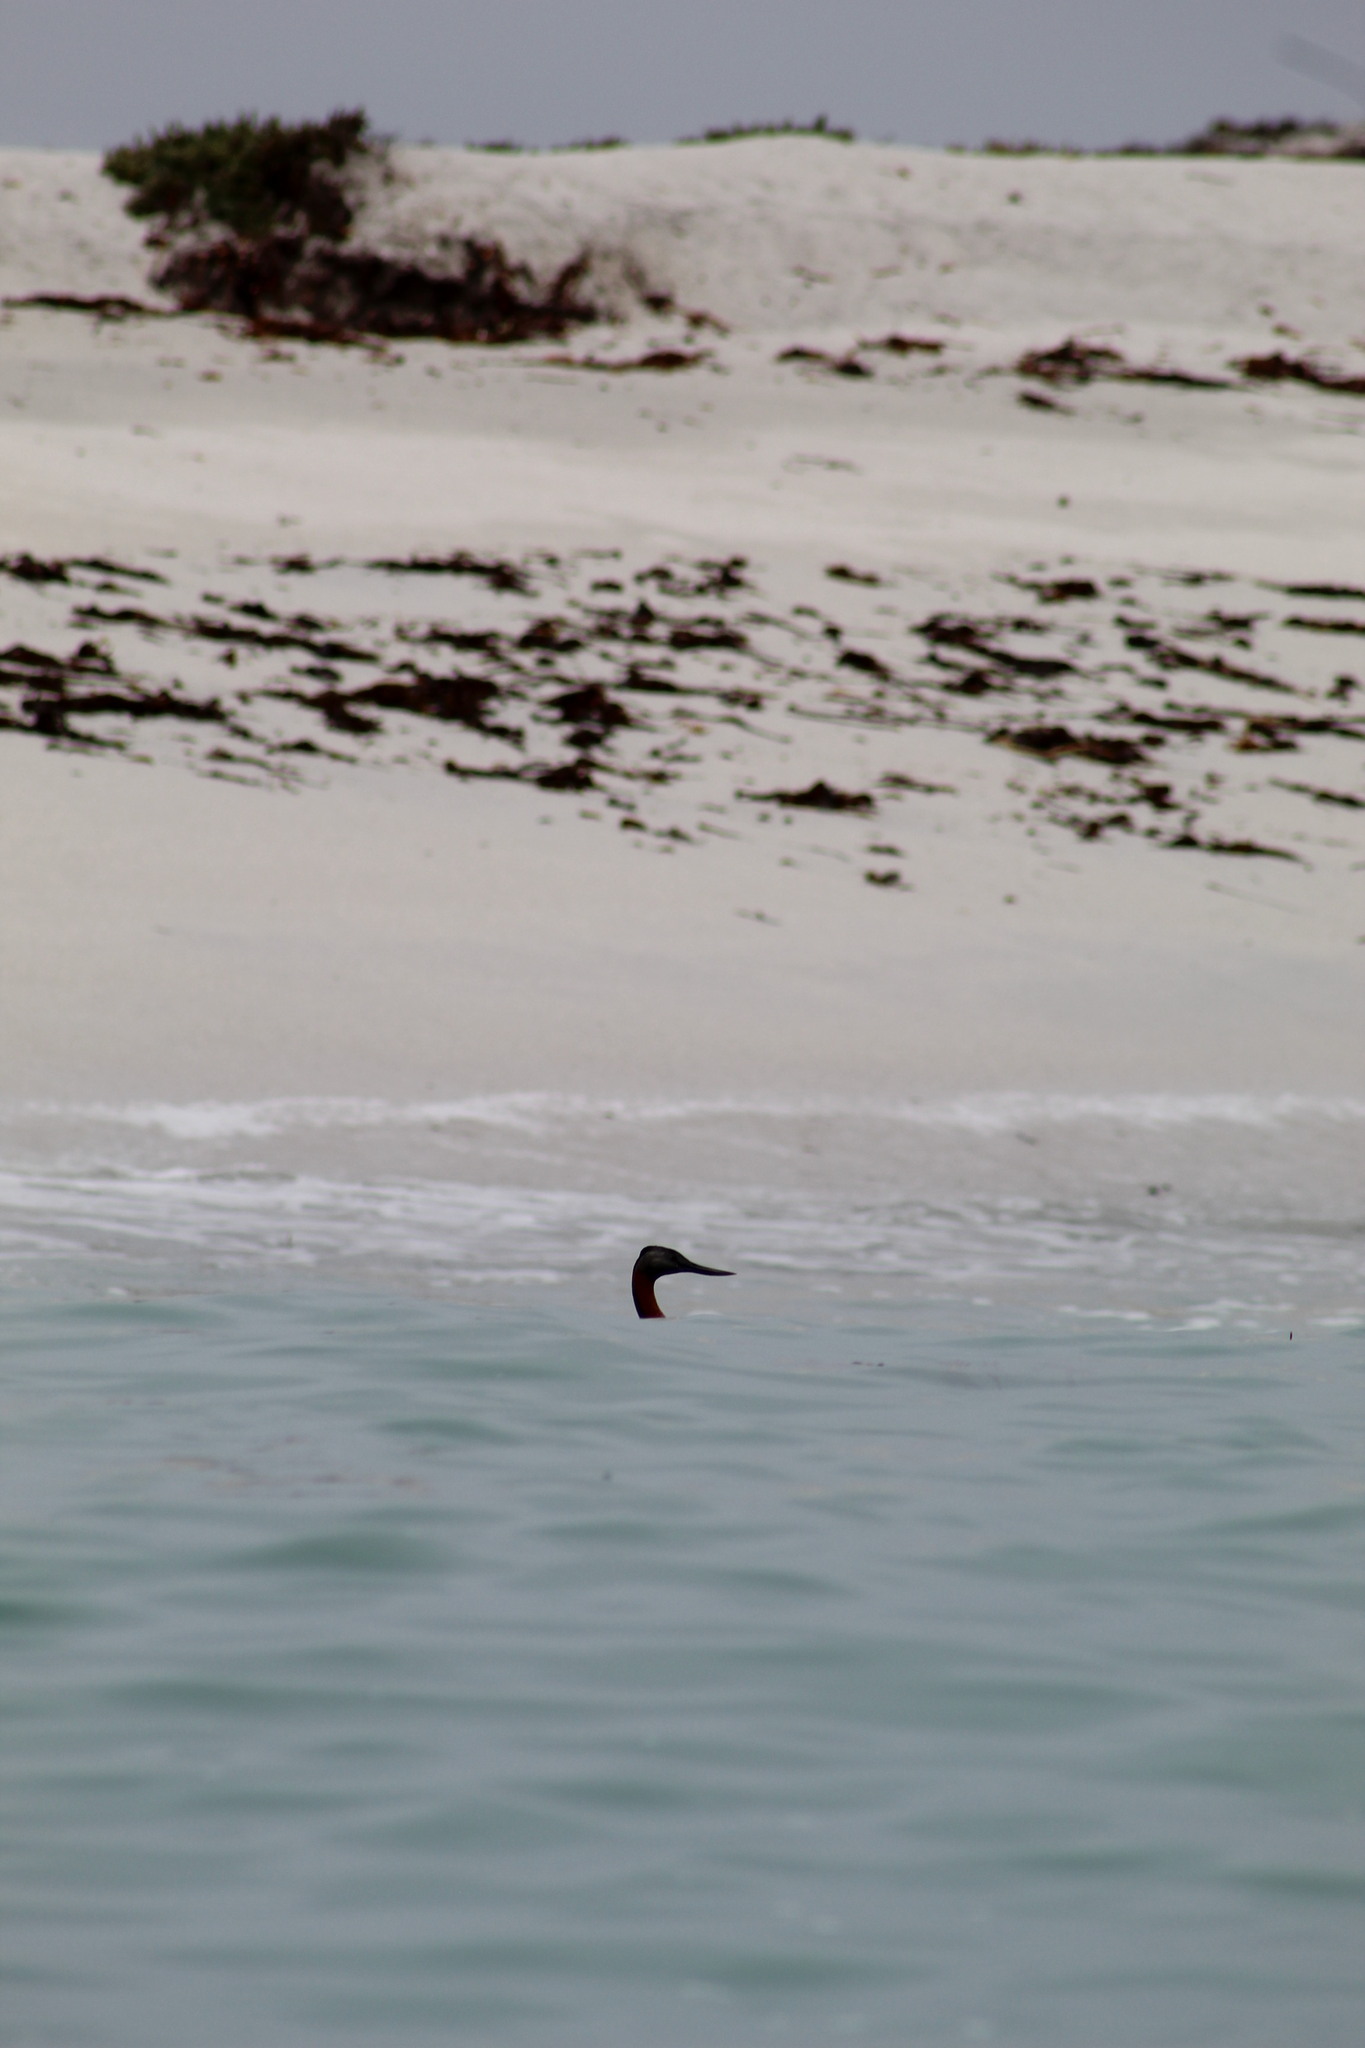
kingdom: Animalia
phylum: Chordata
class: Aves
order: Podicipediformes
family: Podicipedidae
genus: Podiceps
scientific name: Podiceps major
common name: Great grebe
